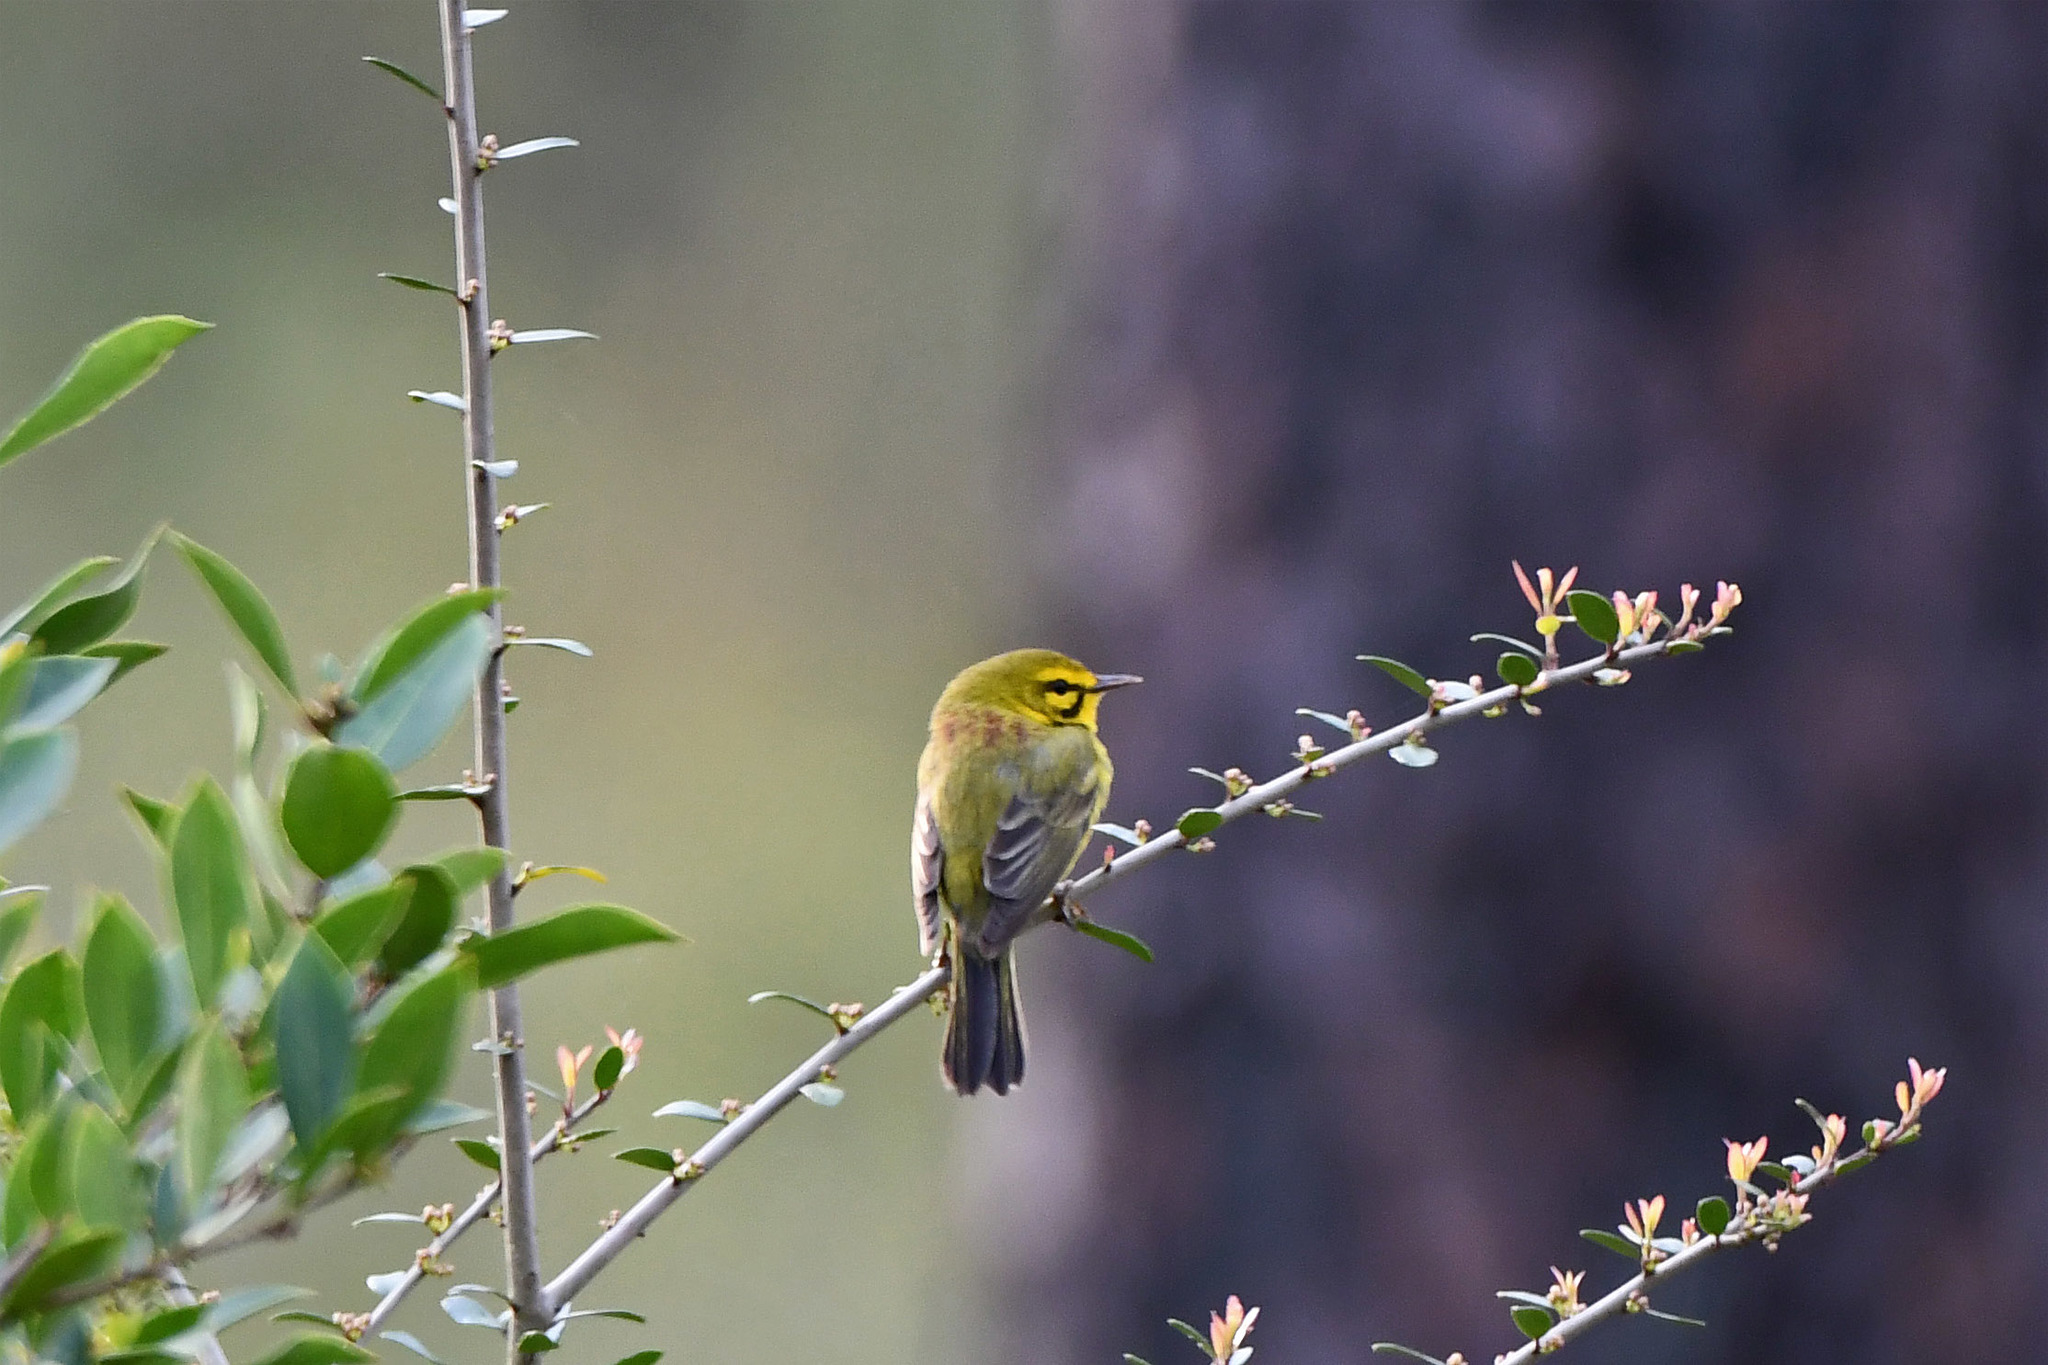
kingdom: Animalia
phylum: Chordata
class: Aves
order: Passeriformes
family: Parulidae
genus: Setophaga
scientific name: Setophaga discolor
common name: Prairie warbler
